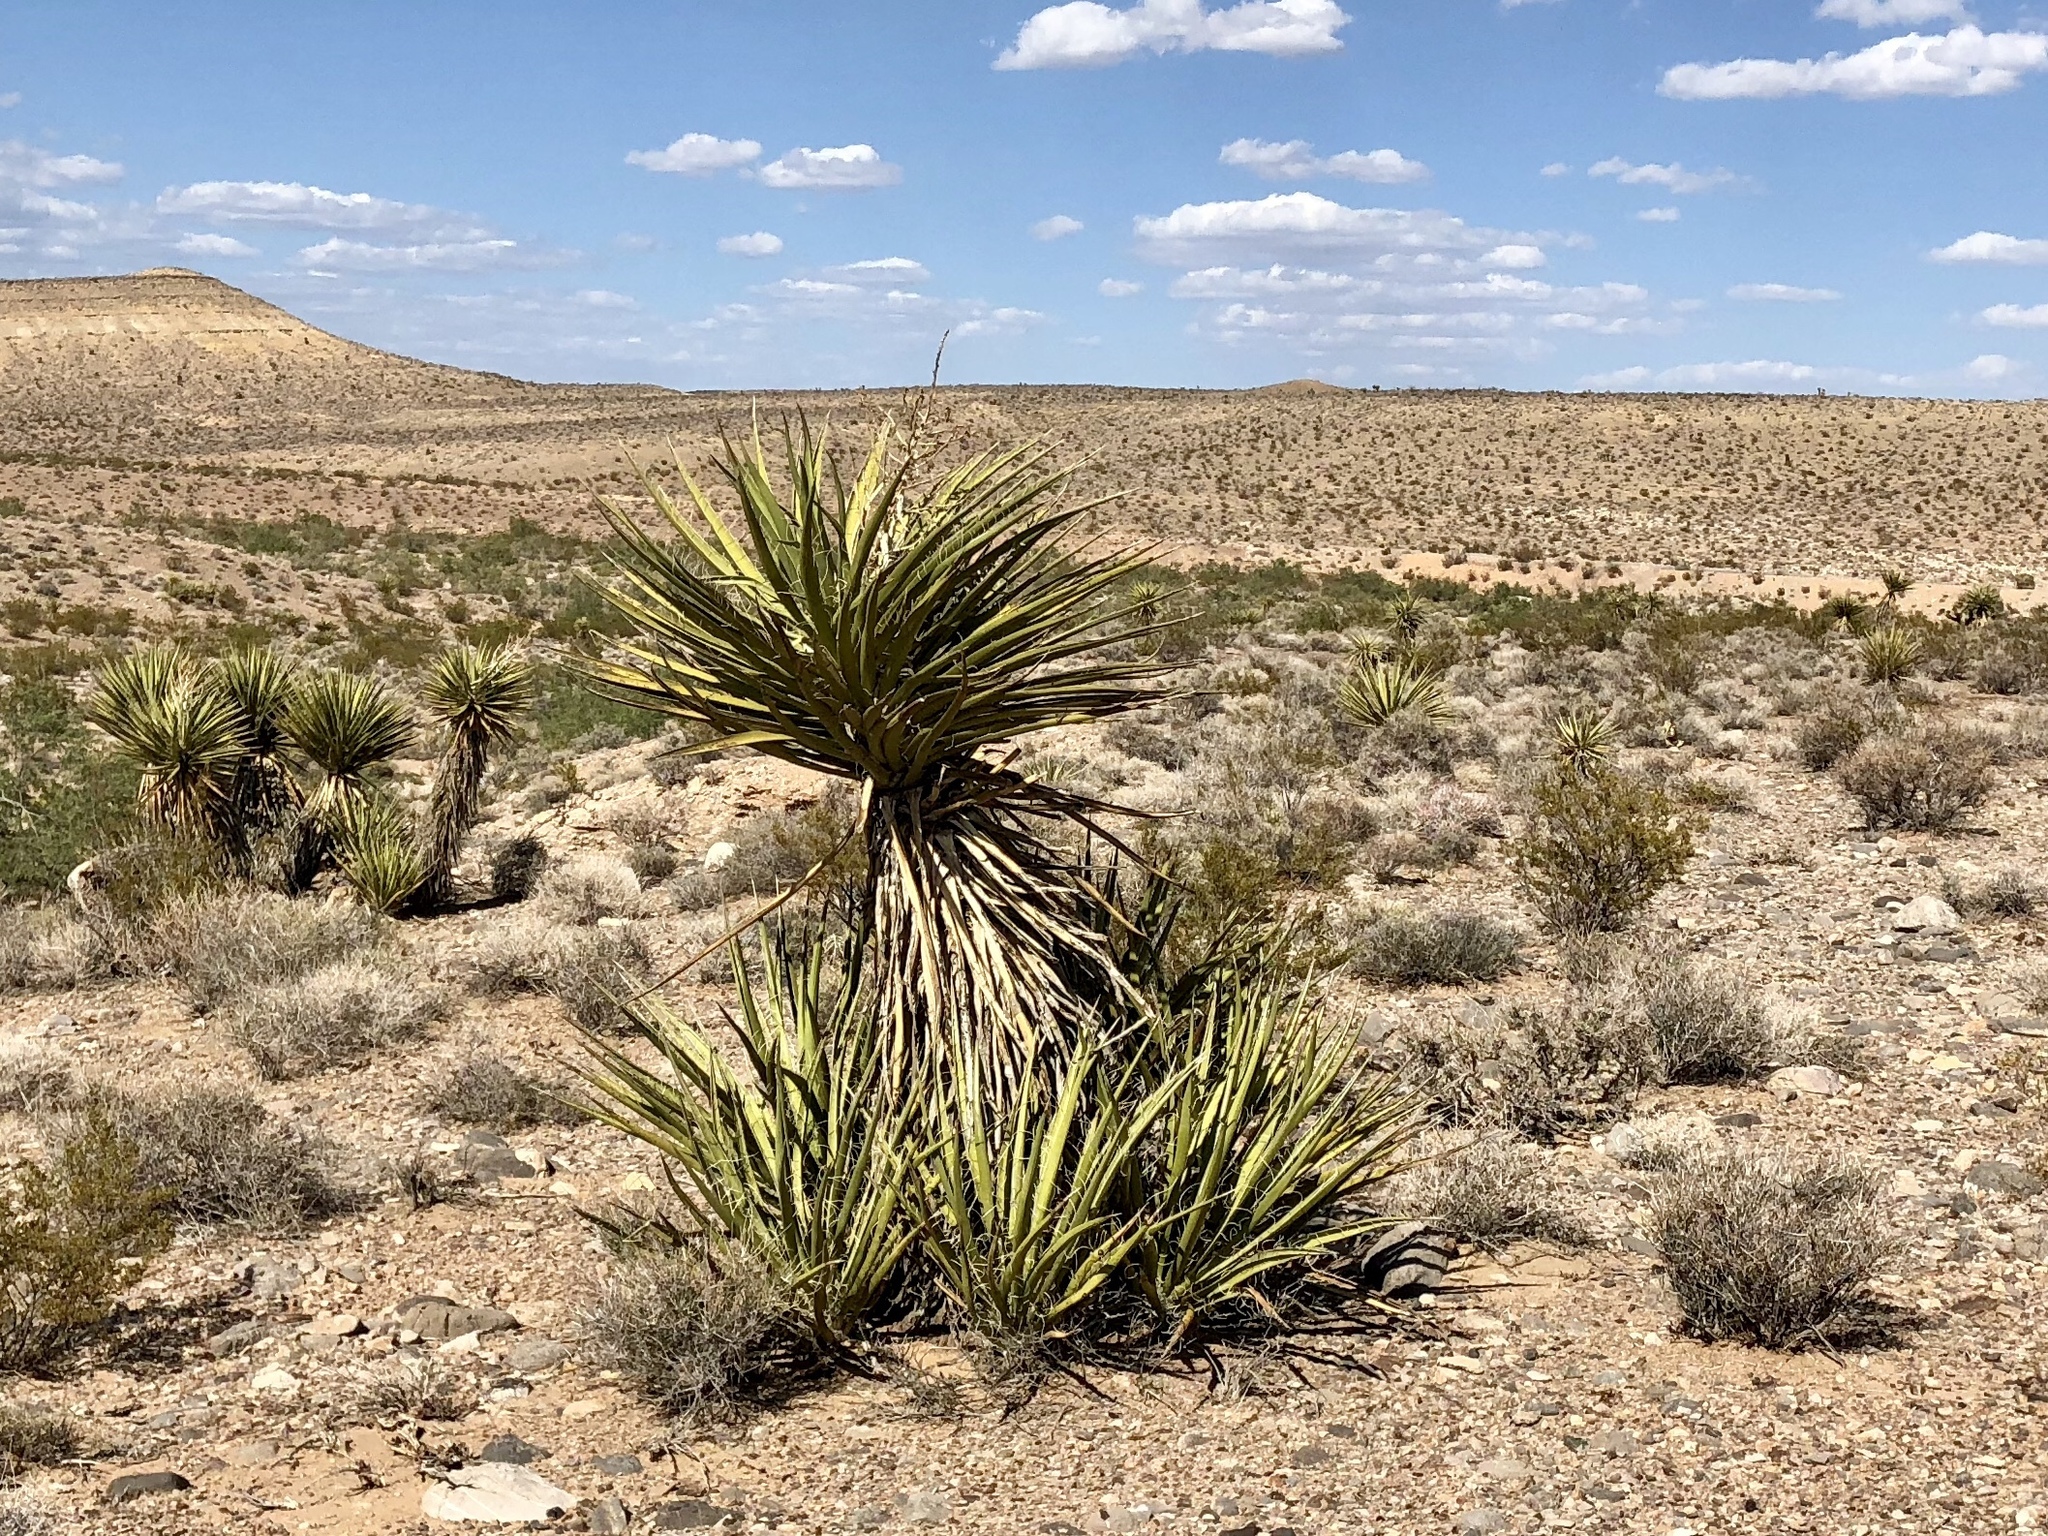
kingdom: Plantae
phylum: Tracheophyta
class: Liliopsida
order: Asparagales
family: Asparagaceae
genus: Yucca
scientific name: Yucca schidigera
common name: Mojave yucca
